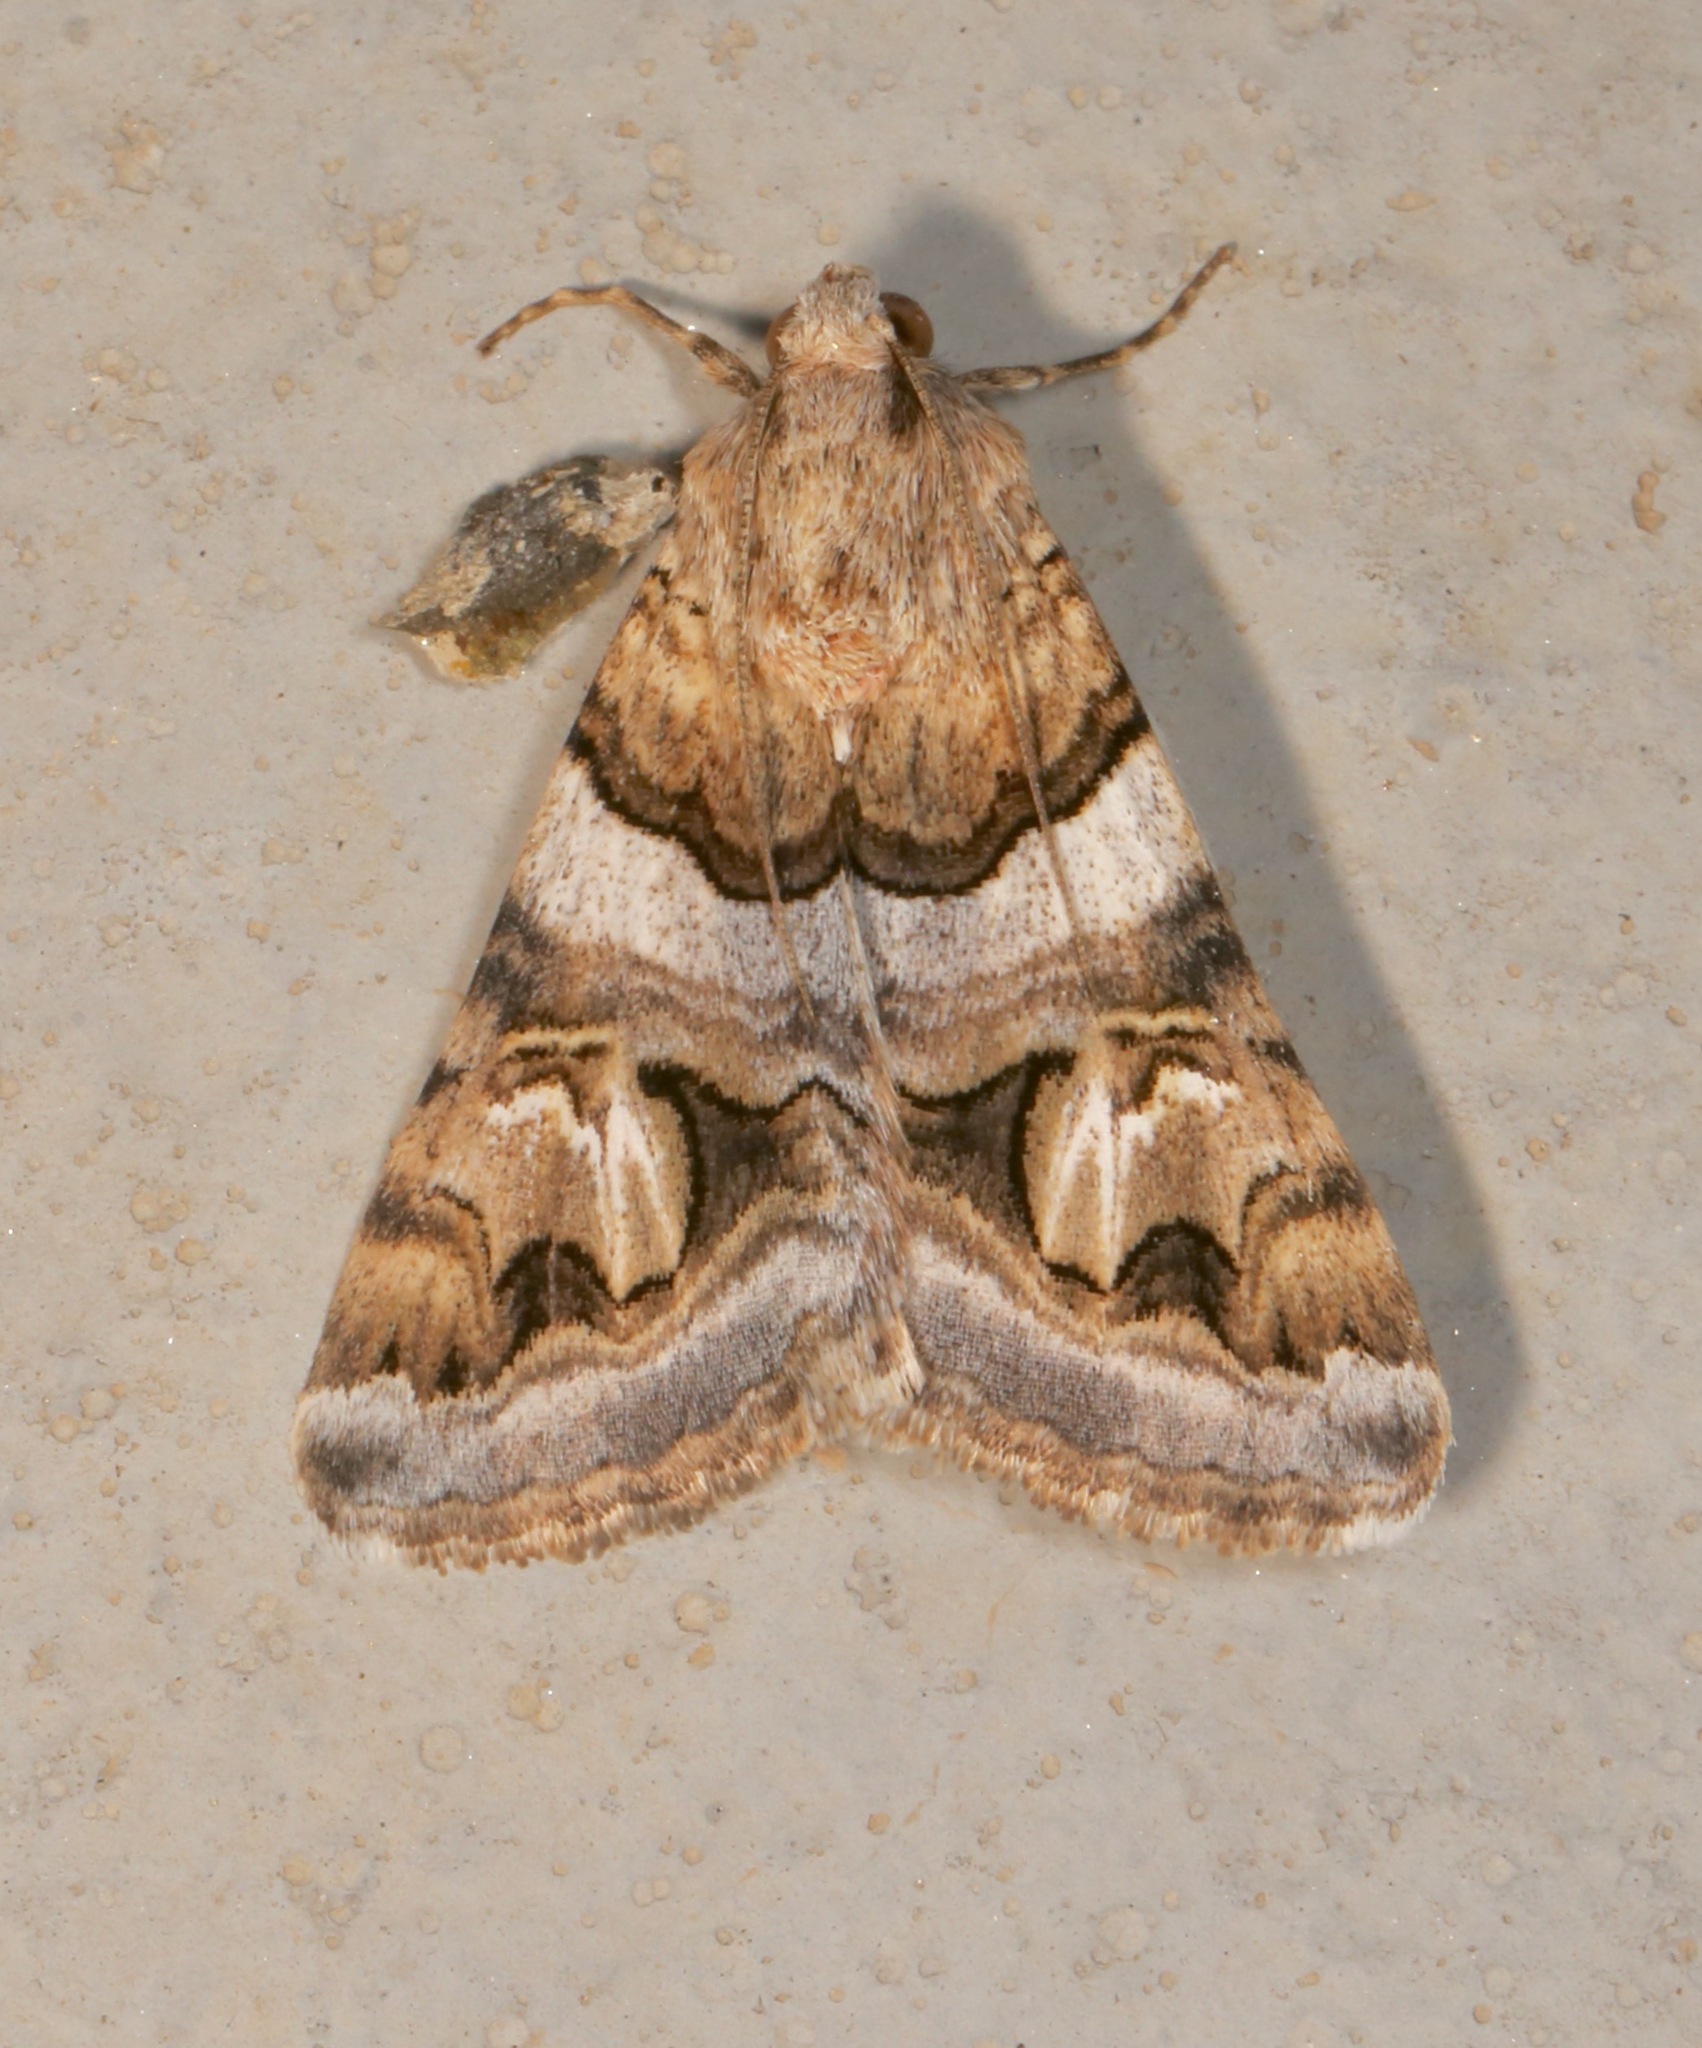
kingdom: Animalia
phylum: Arthropoda
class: Insecta
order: Lepidoptera
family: Erebidae
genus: Drasteria
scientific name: Drasteria howlandii
